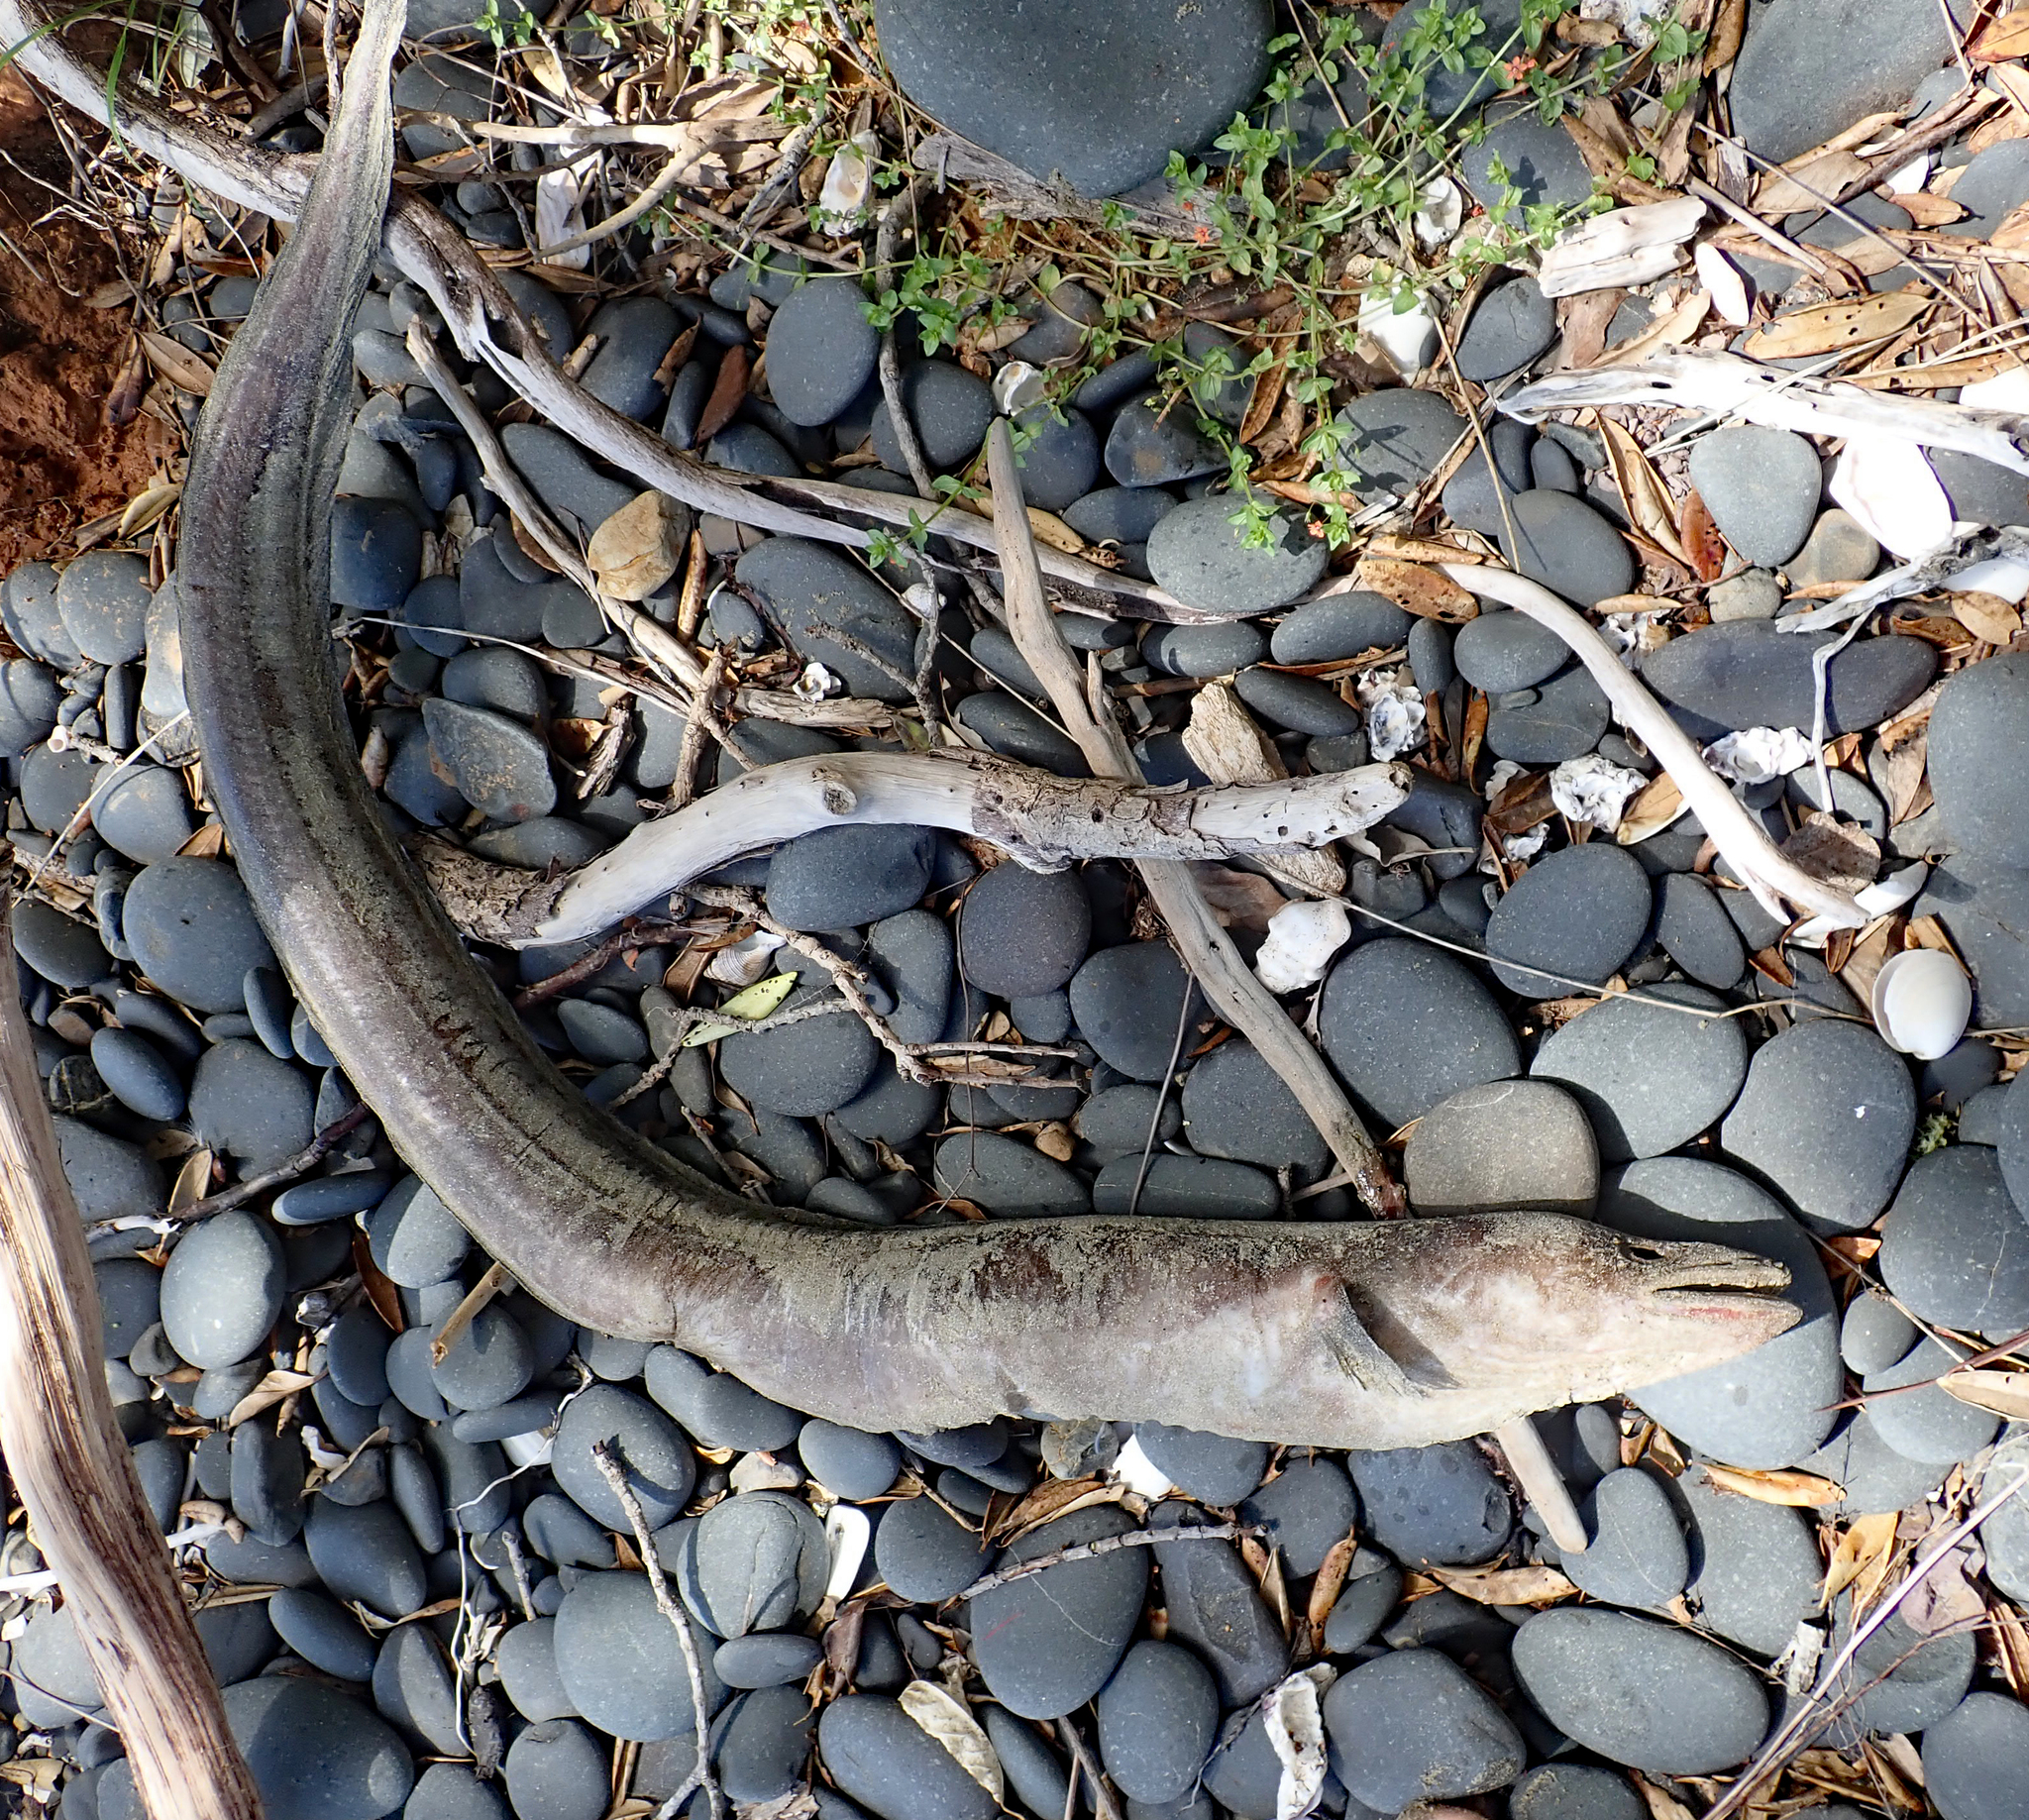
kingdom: Animalia
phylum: Chordata
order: Anguilliformes
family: Congridae
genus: Conger
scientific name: Conger verreauxi
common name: Conger eel
